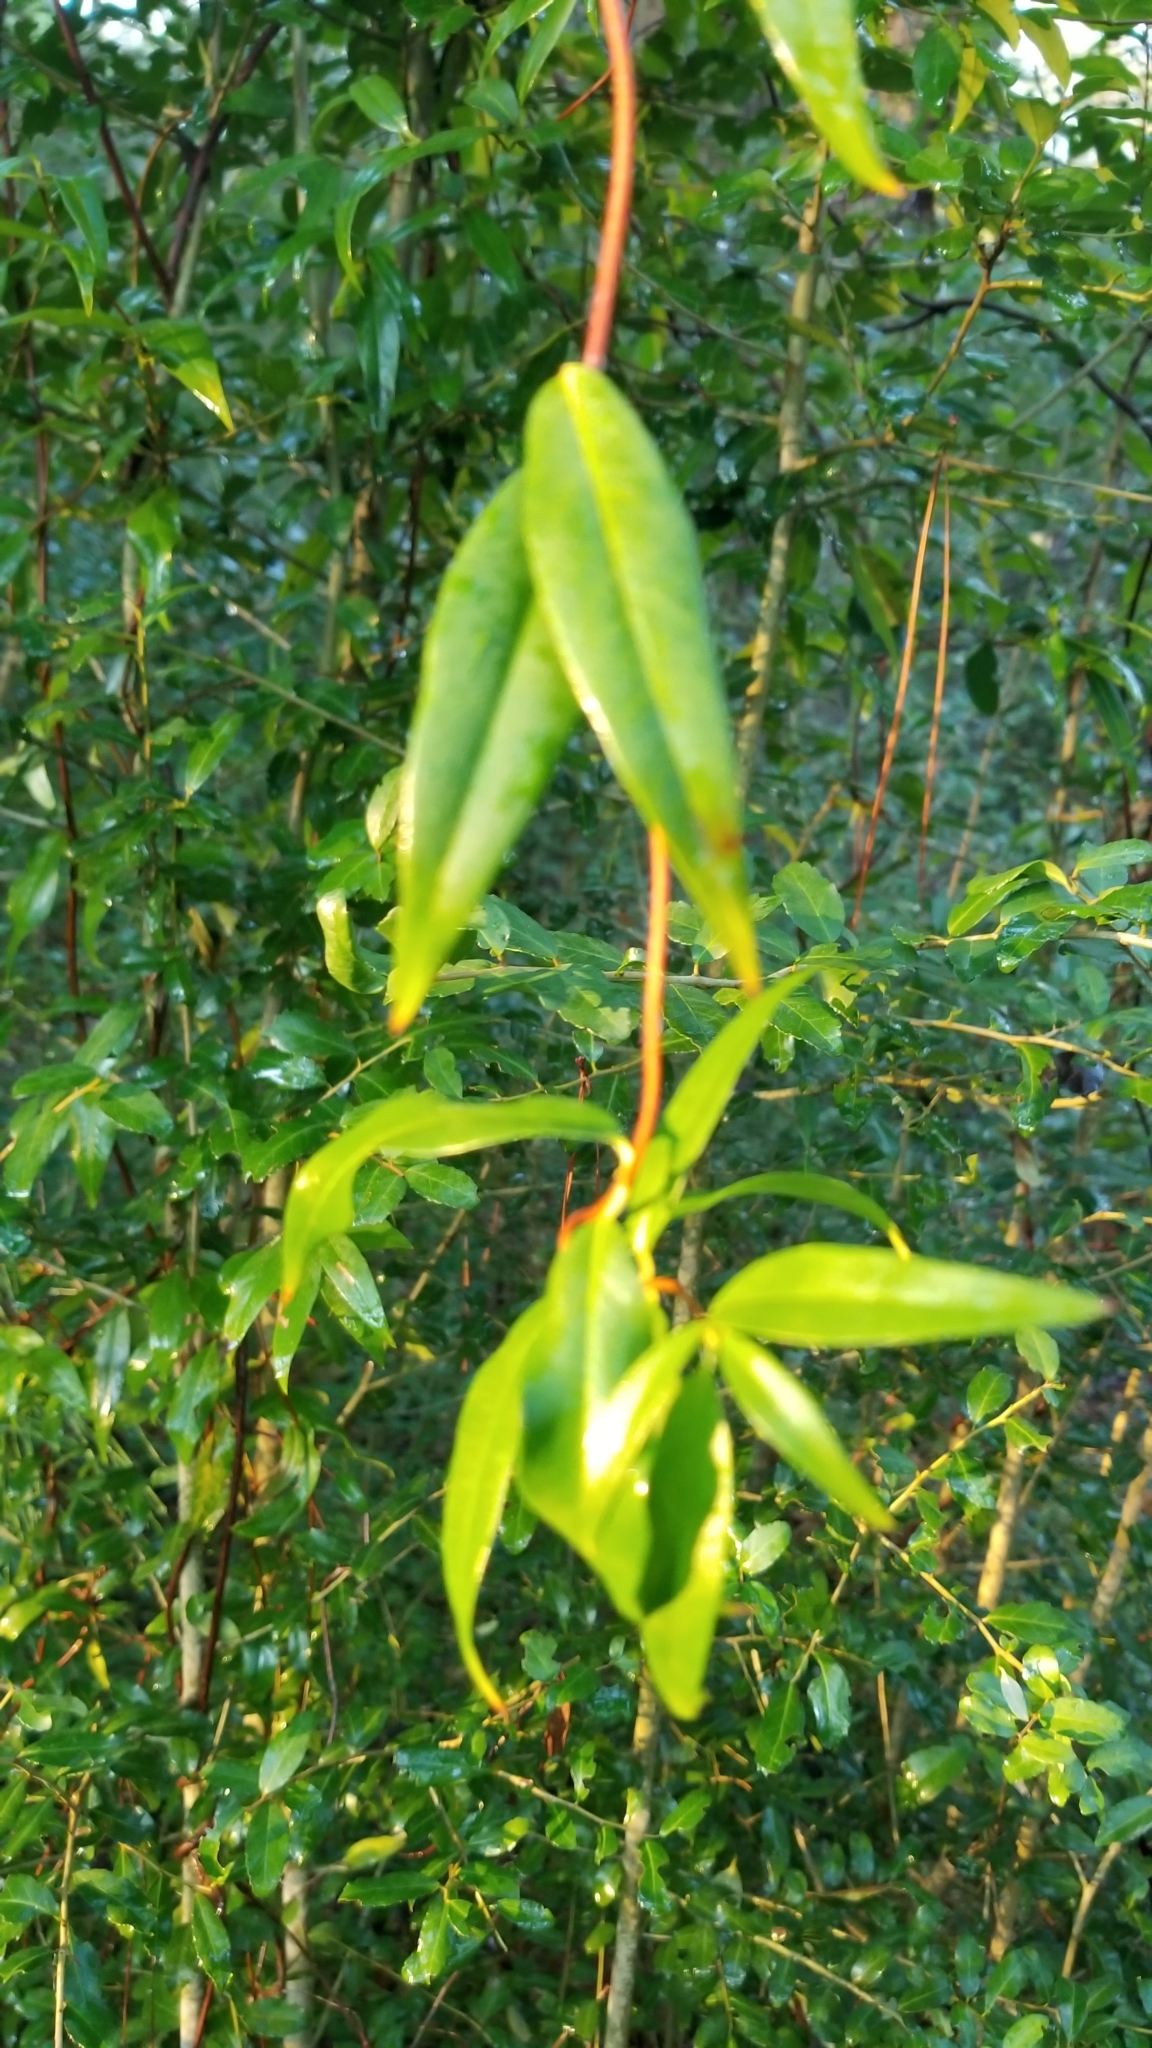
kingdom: Plantae
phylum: Tracheophyta
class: Magnoliopsida
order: Gentianales
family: Gelsemiaceae
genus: Gelsemium
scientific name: Gelsemium sempervirens
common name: Carolina-jasmine
